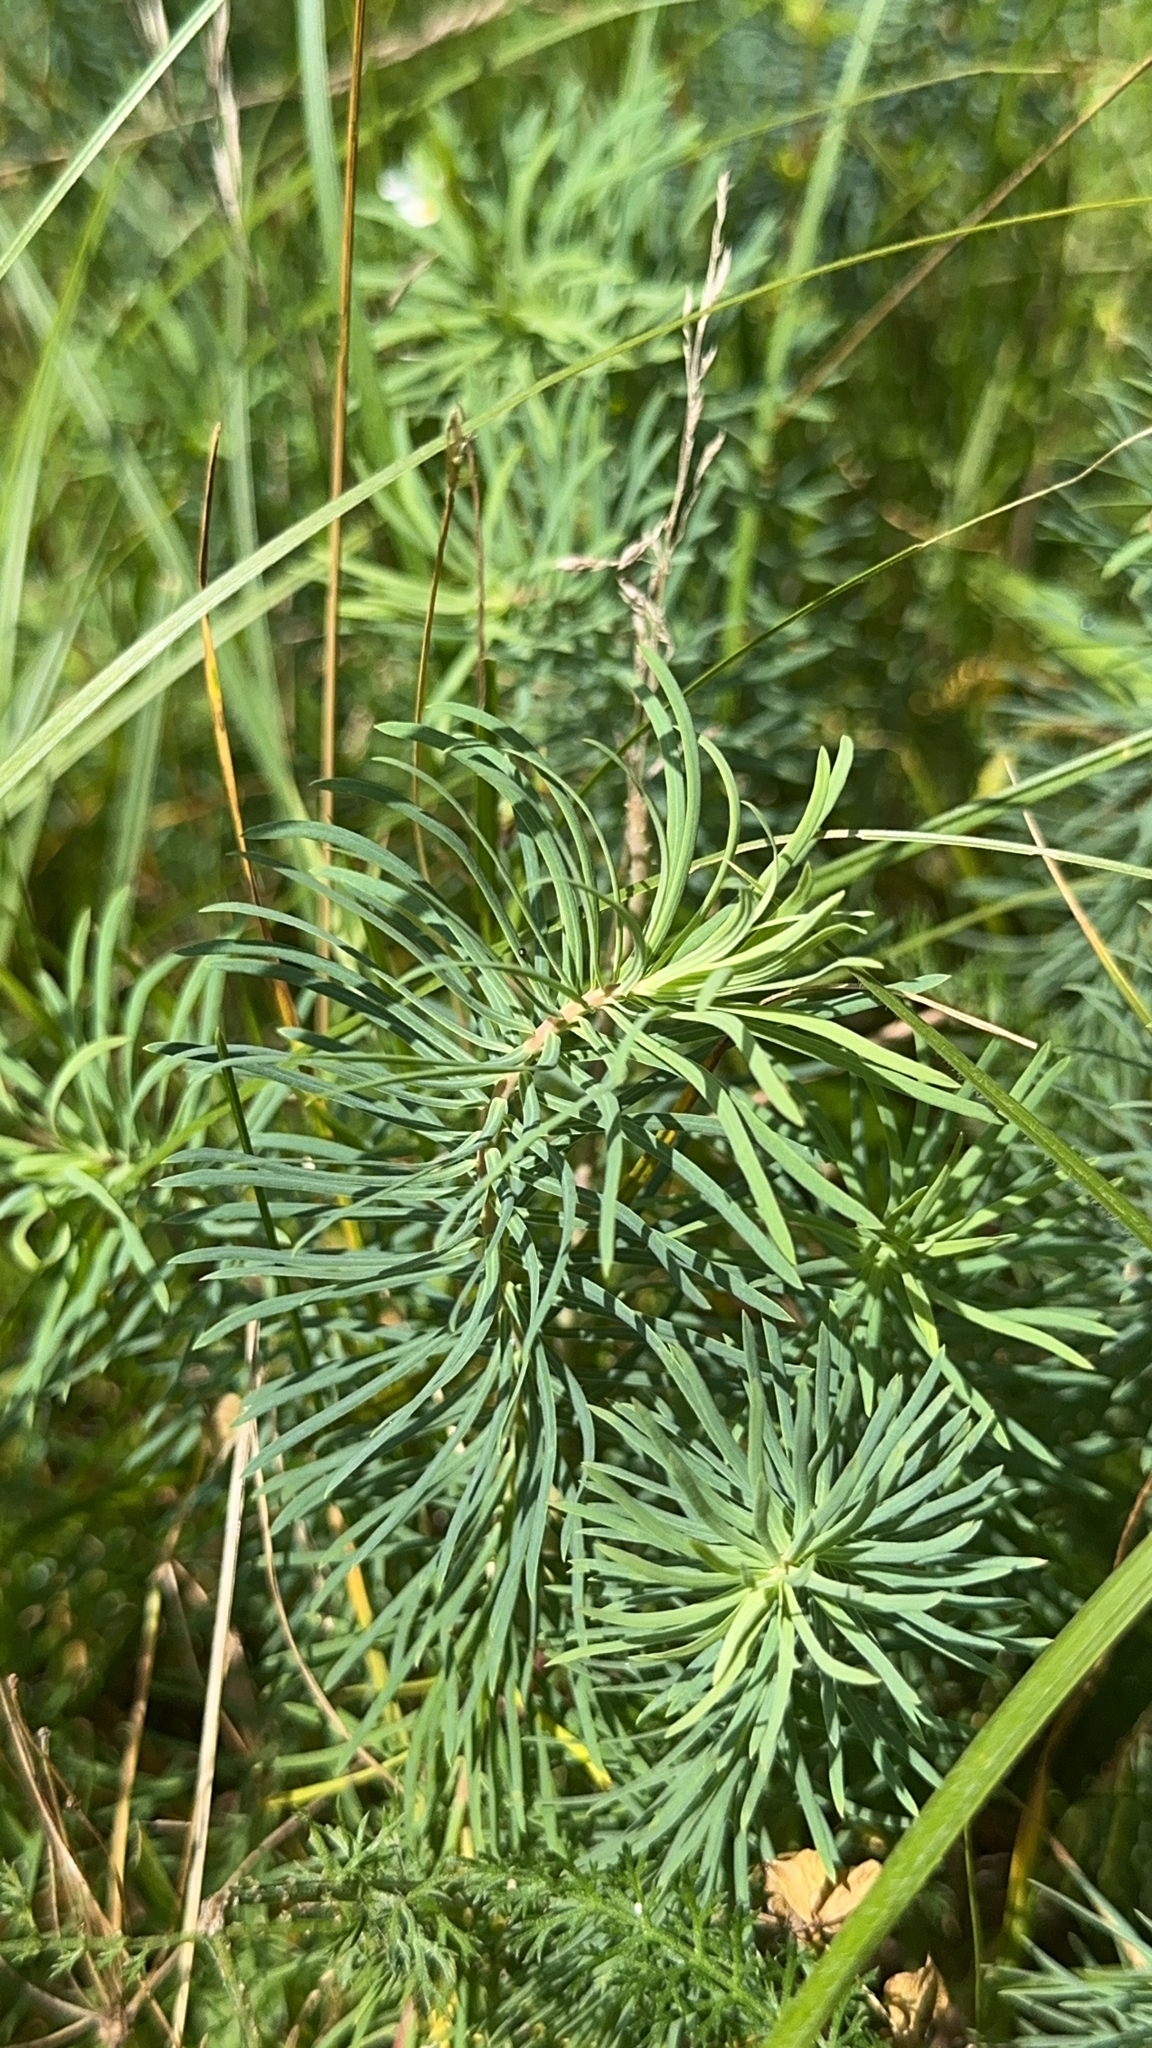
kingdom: Plantae
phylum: Tracheophyta
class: Magnoliopsida
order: Malpighiales
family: Euphorbiaceae
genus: Euphorbia
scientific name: Euphorbia cyparissias
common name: Cypress spurge
